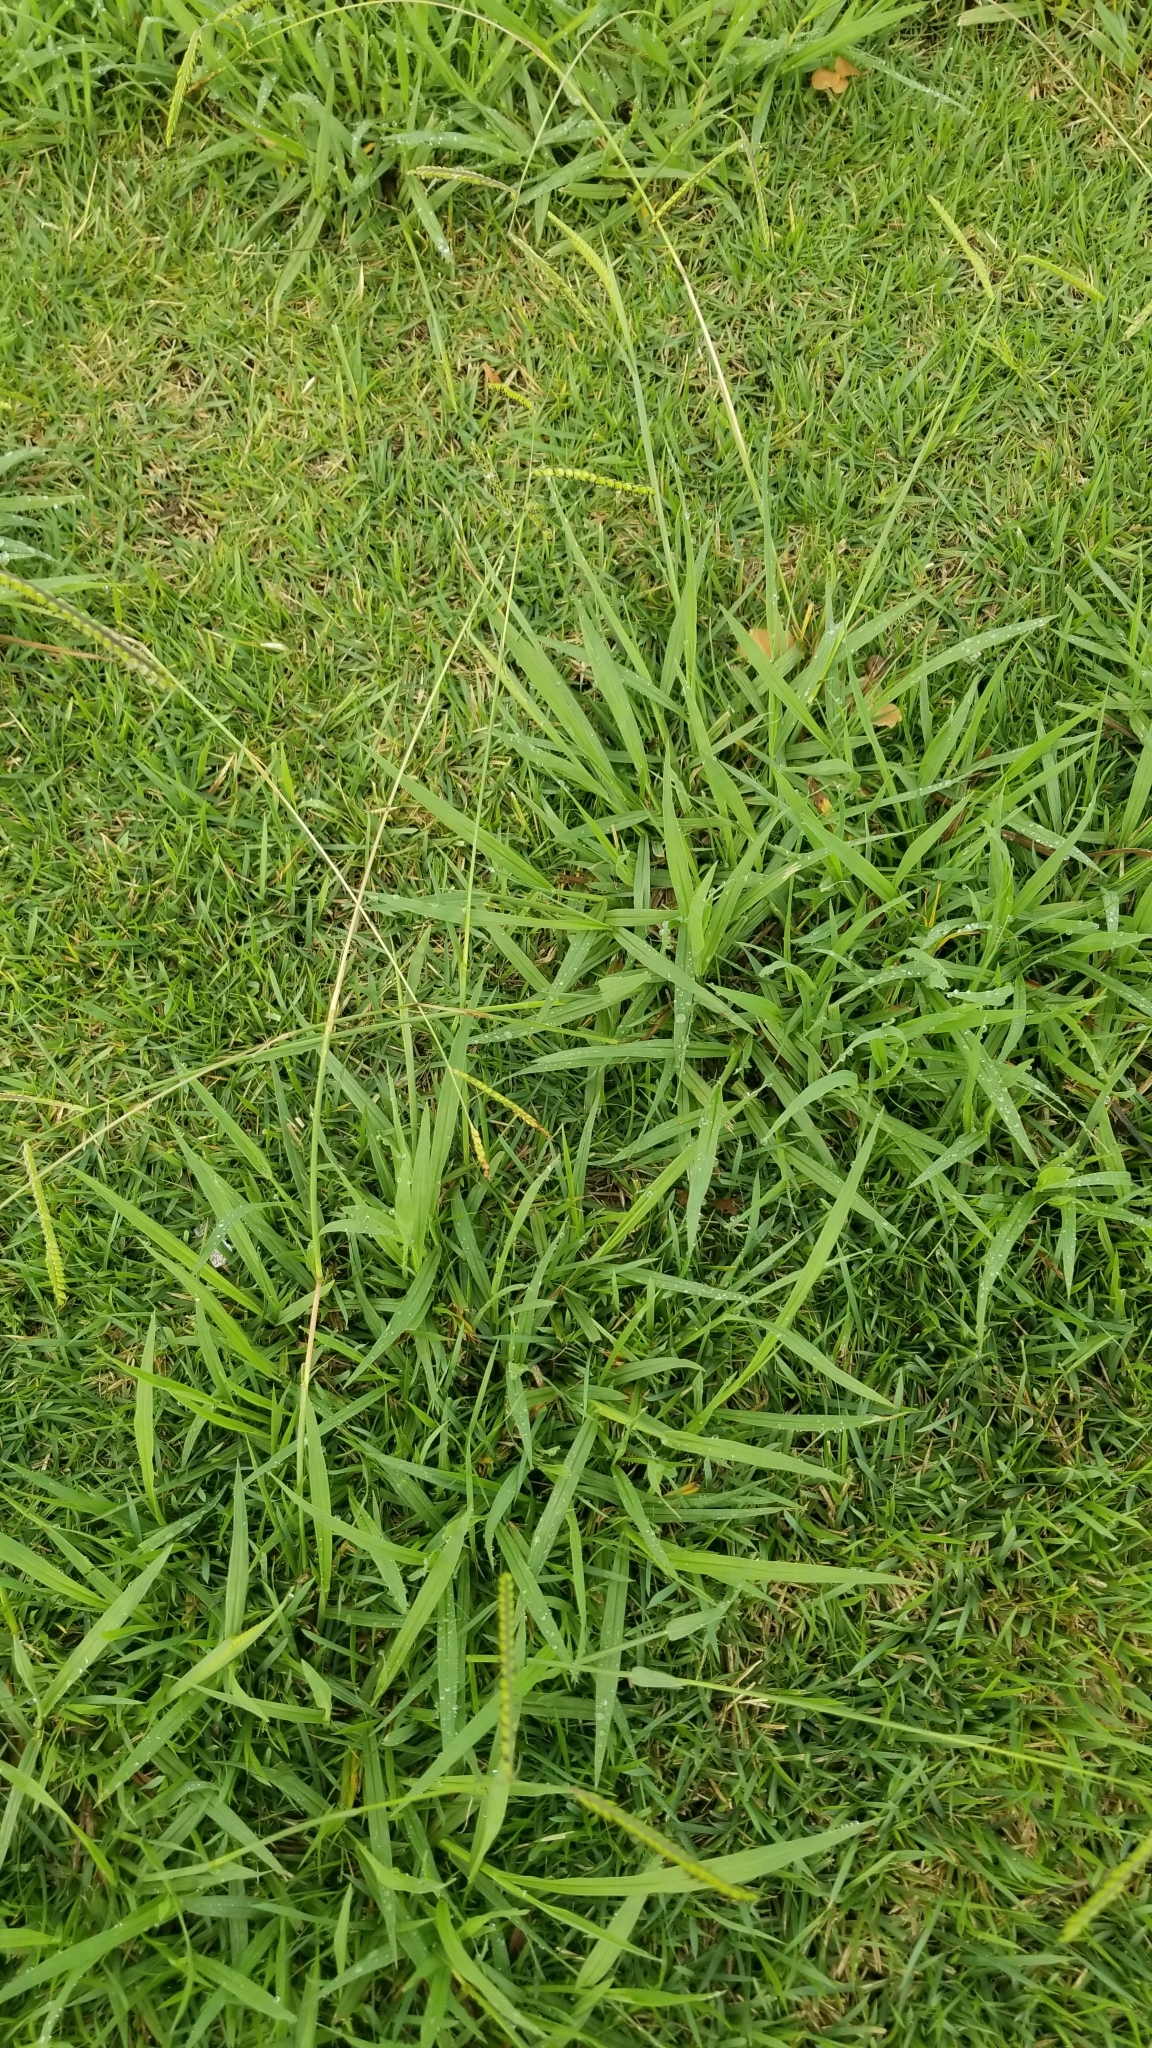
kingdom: Plantae
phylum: Tracheophyta
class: Liliopsida
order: Poales
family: Poaceae
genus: Paspalum
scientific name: Paspalum dilatatum
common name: Dallisgrass
